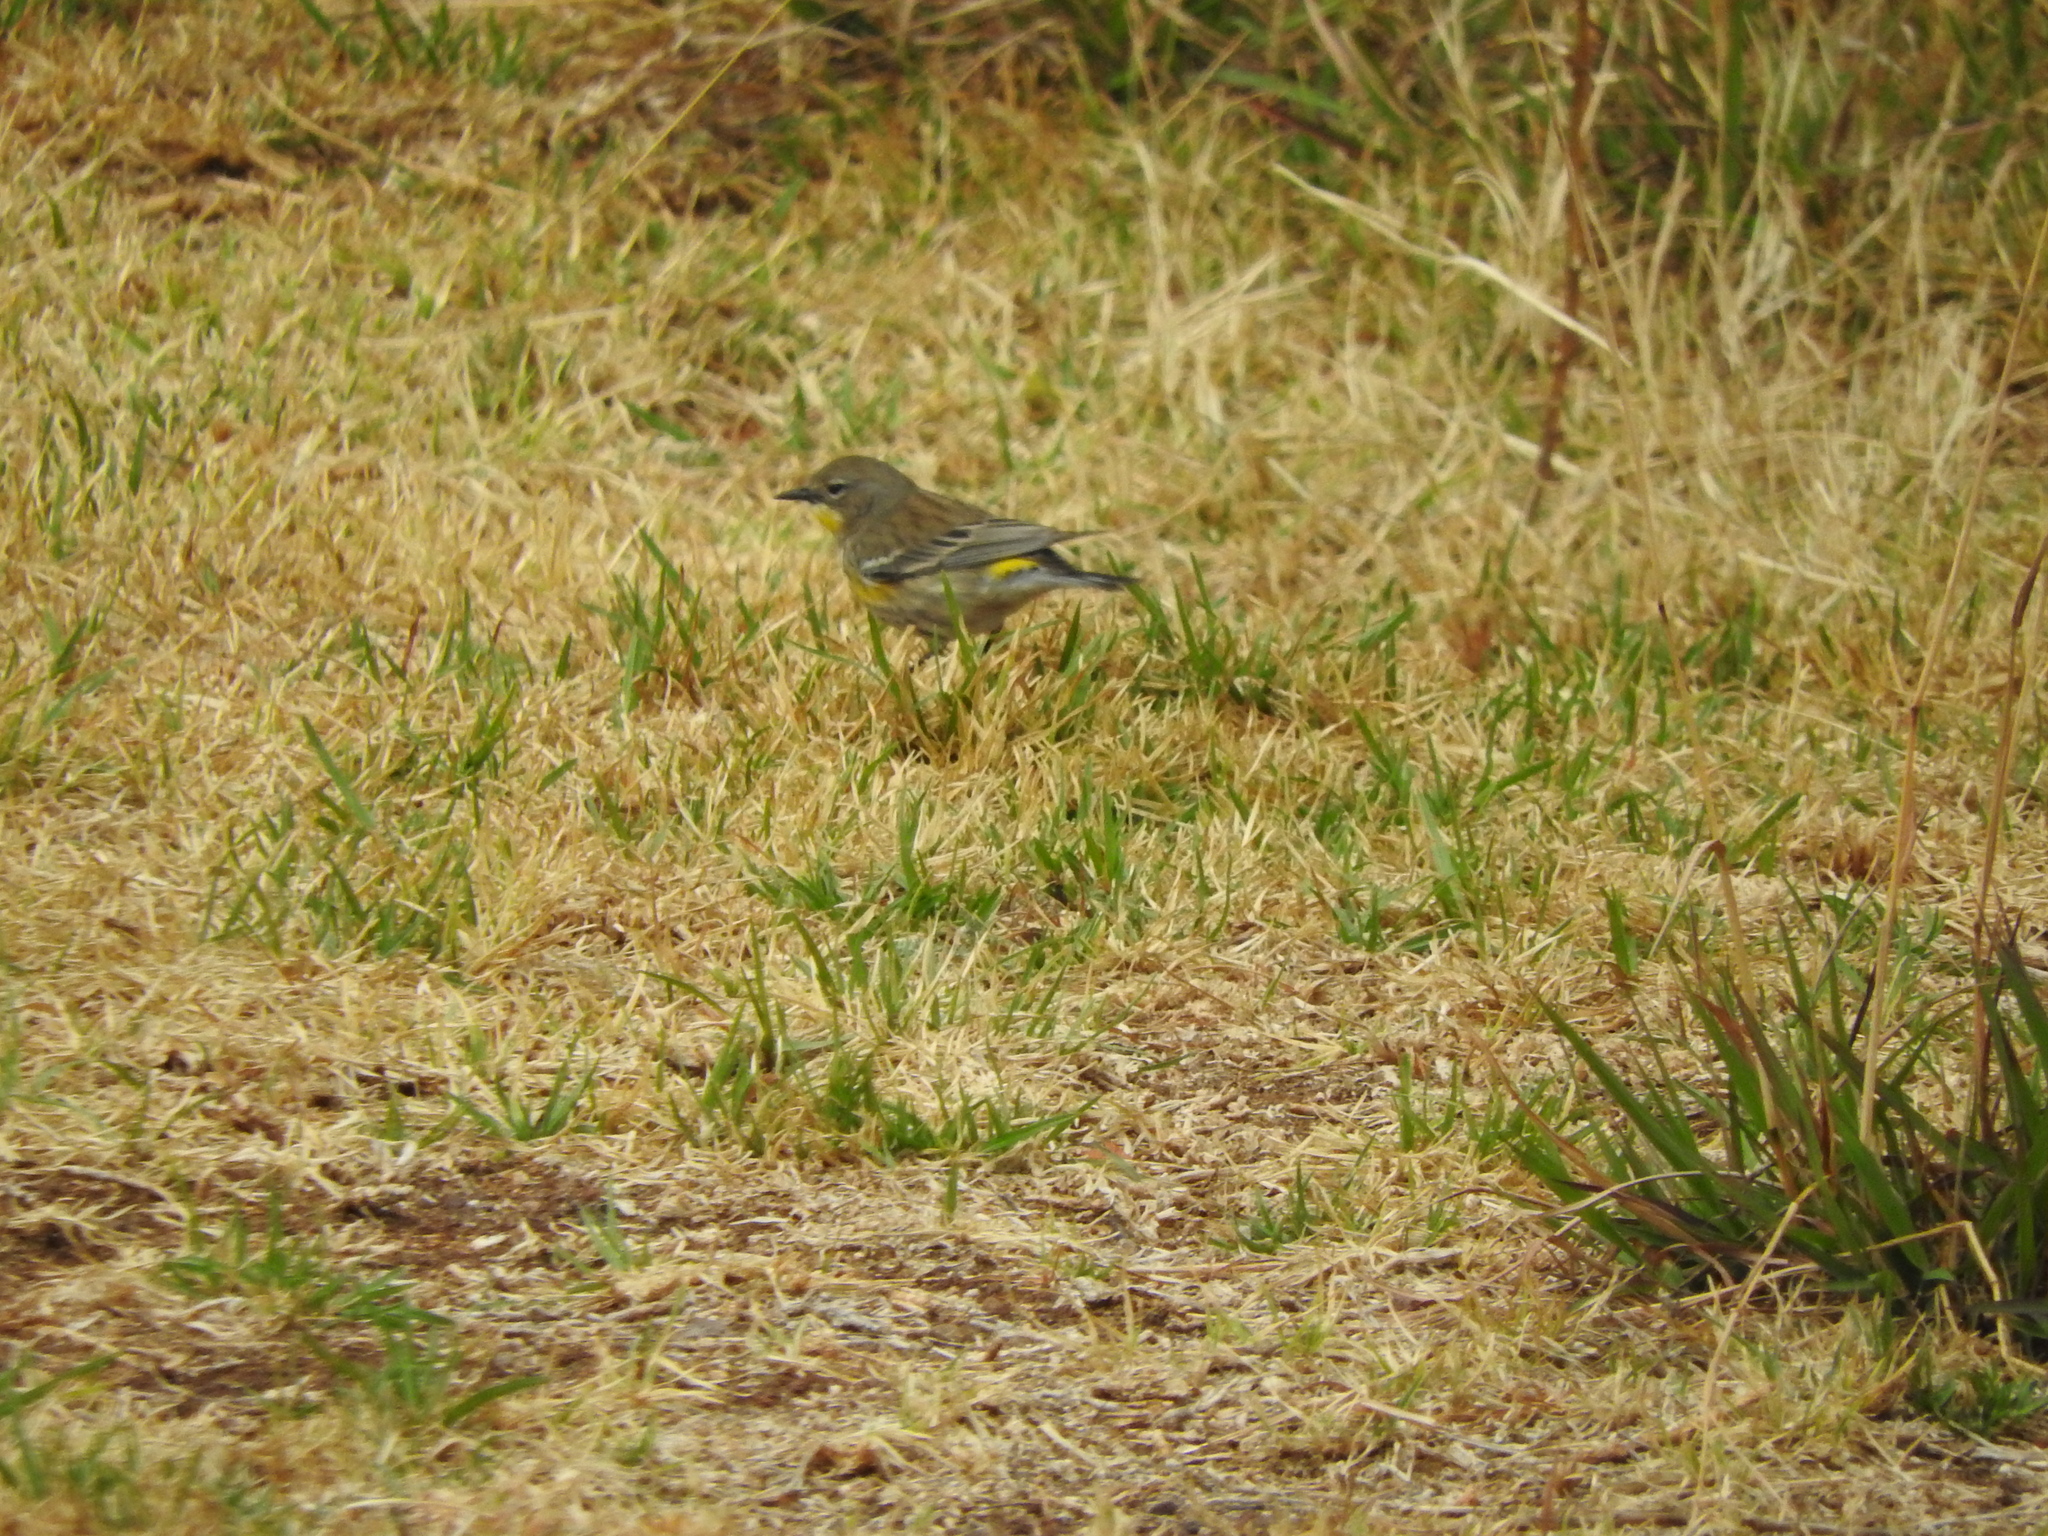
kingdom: Animalia
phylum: Chordata
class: Aves
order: Passeriformes
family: Parulidae
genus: Setophaga
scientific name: Setophaga coronata
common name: Myrtle warbler
